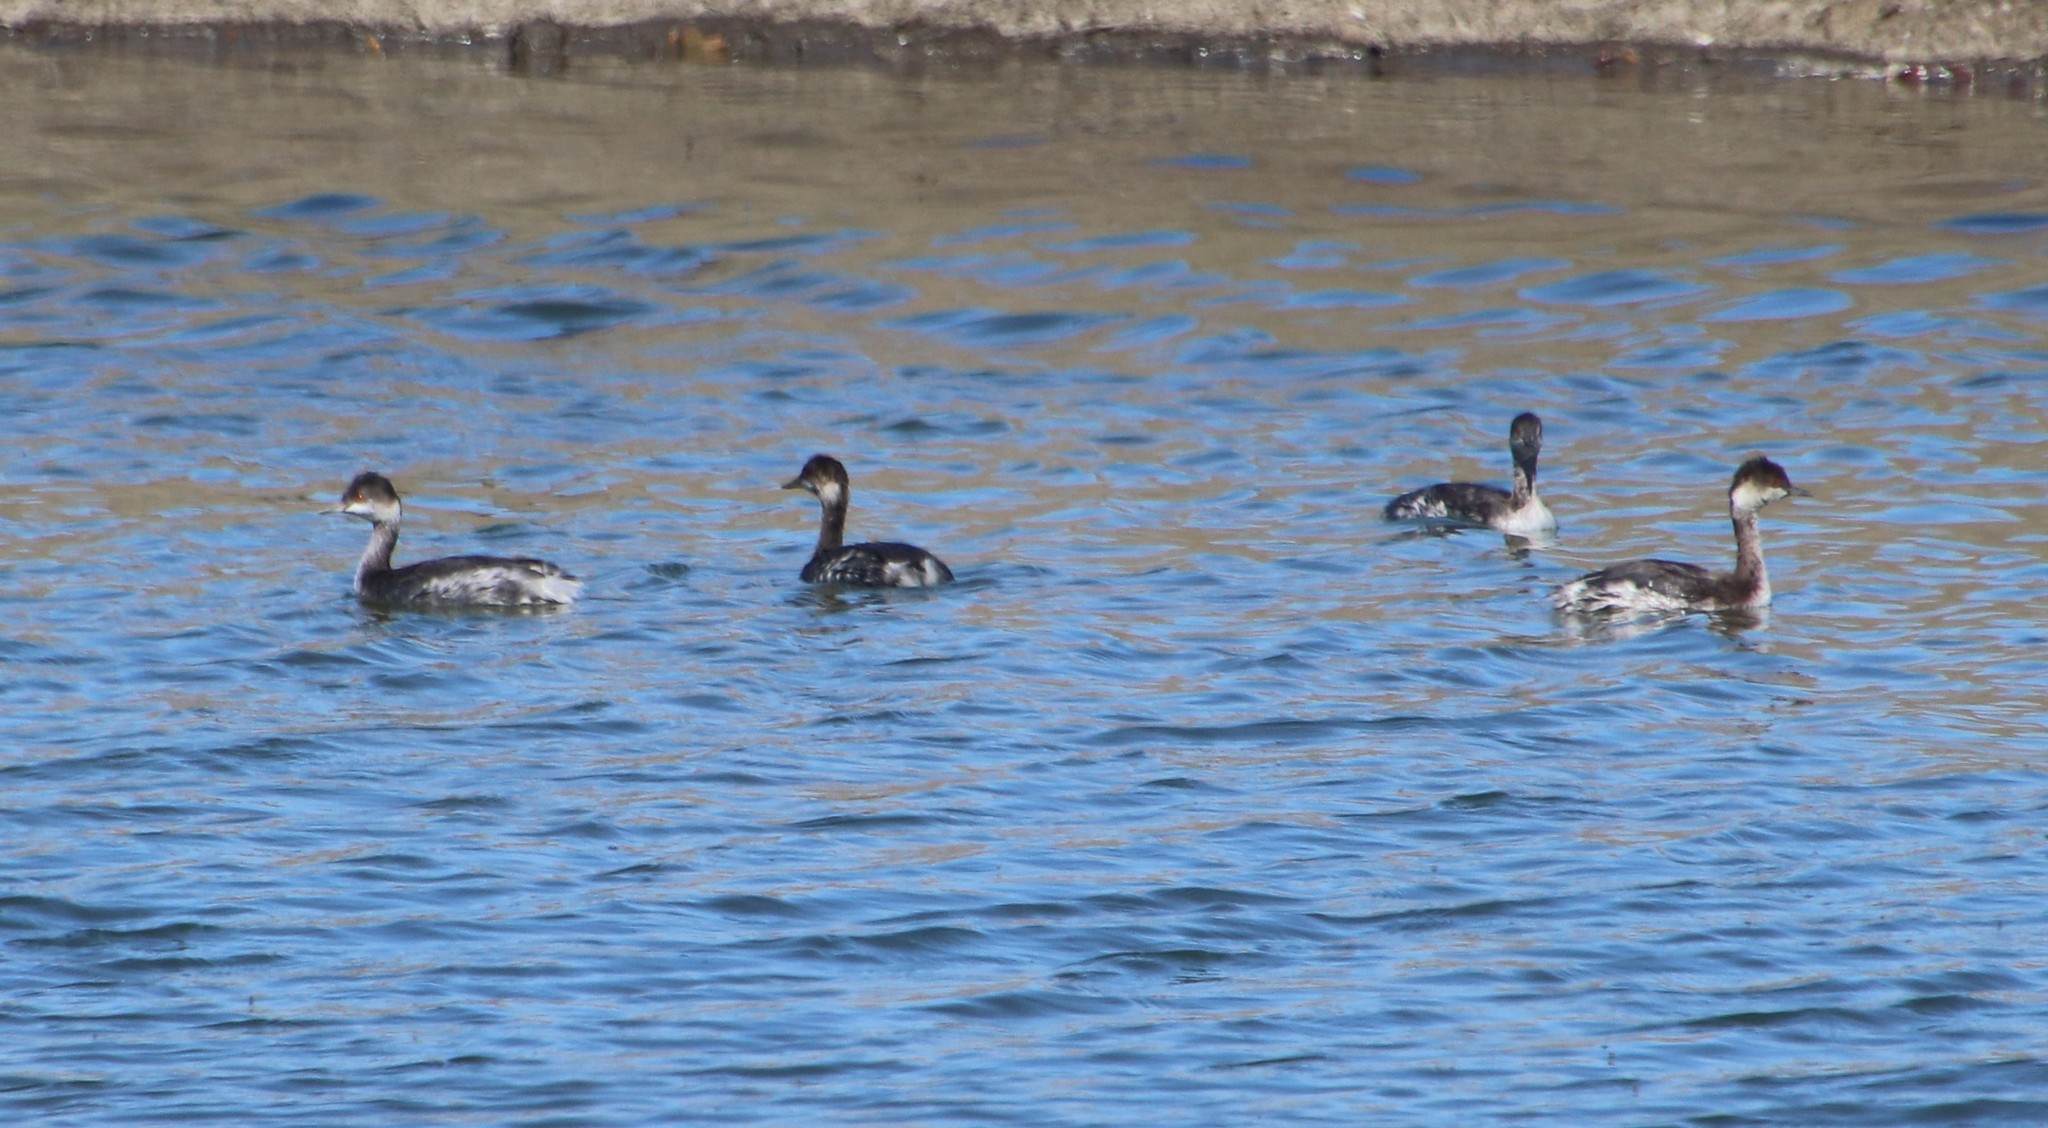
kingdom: Animalia
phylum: Chordata
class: Aves
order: Podicipediformes
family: Podicipedidae
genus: Podiceps
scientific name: Podiceps nigricollis
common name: Black-necked grebe
